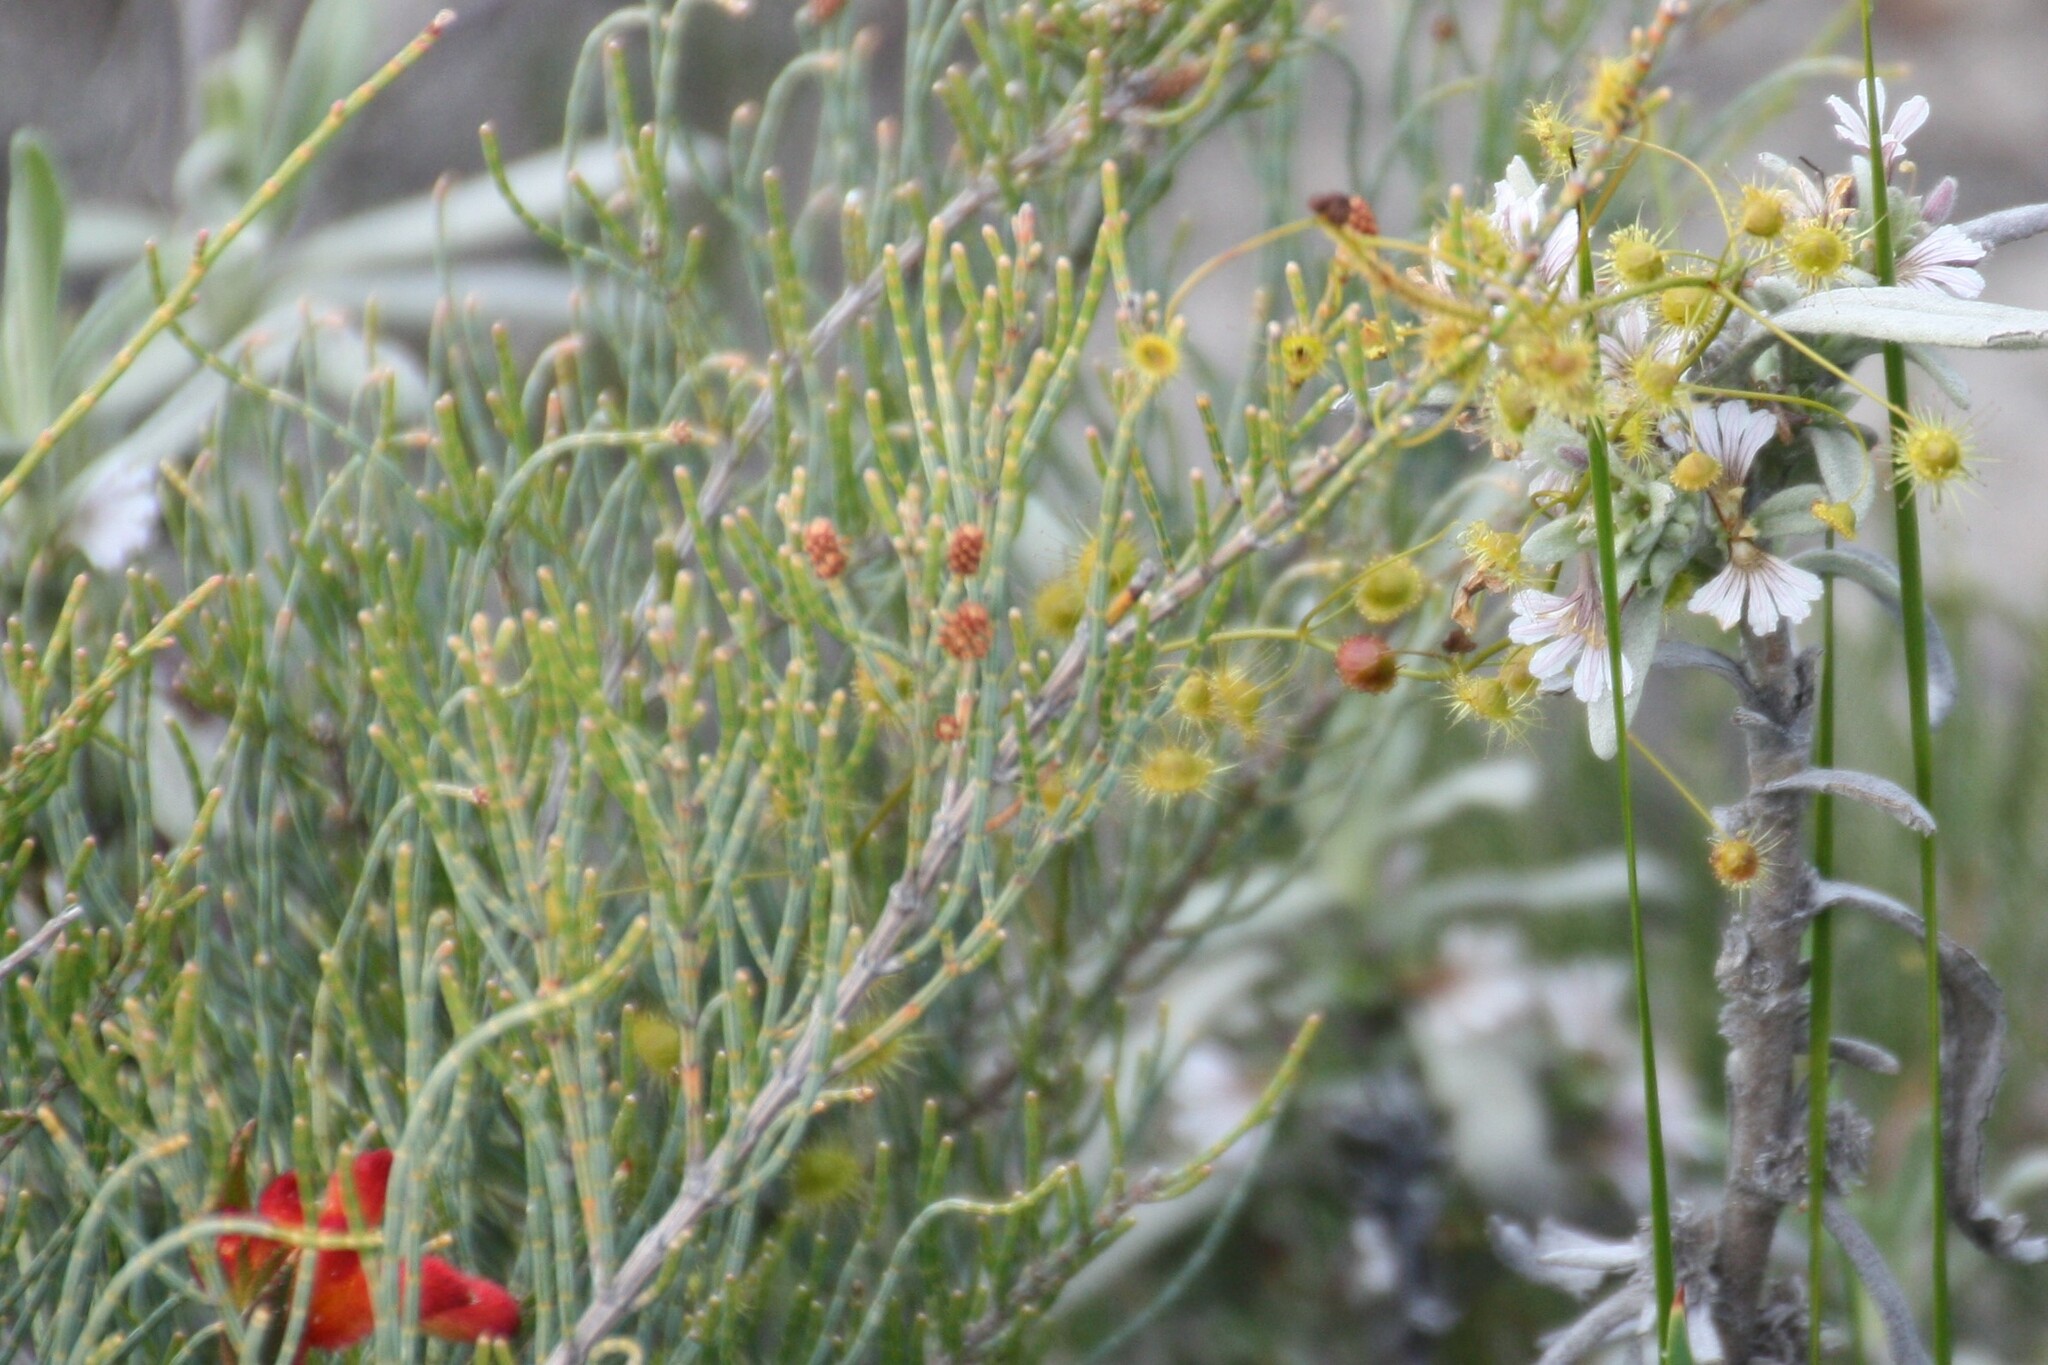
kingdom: Plantae
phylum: Tracheophyta
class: Magnoliopsida
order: Caryophyllales
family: Droseraceae
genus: Drosera
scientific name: Drosera hirsuta
